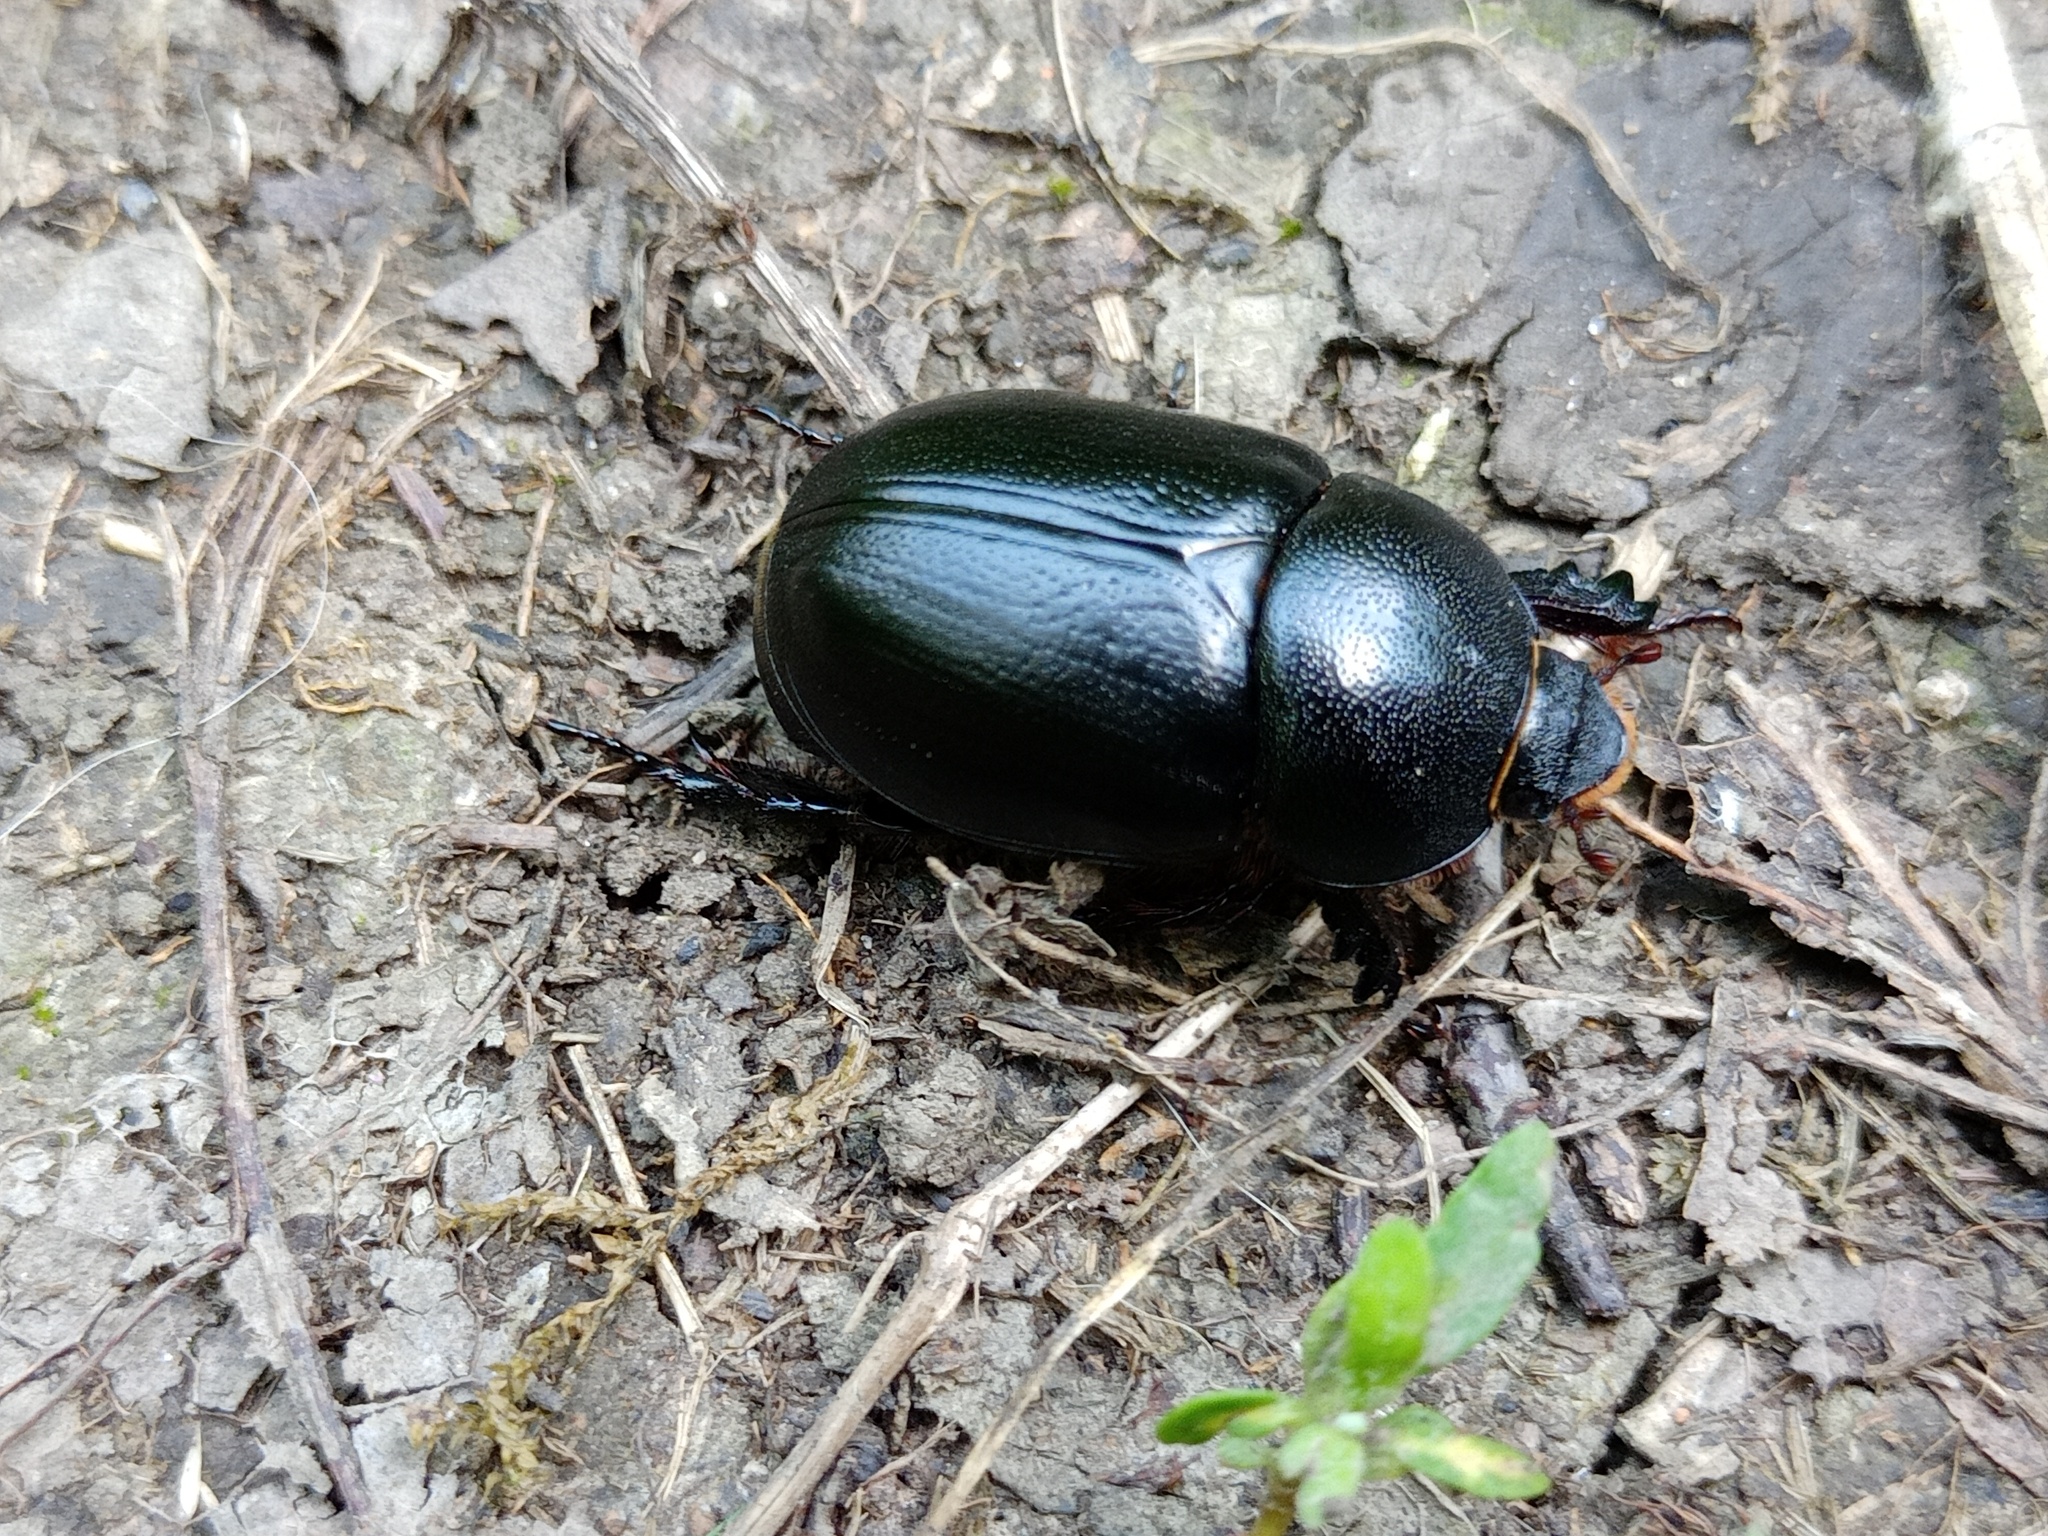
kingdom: Animalia
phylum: Arthropoda
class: Insecta
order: Coleoptera
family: Scarabaeidae
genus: Pentodon
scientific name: Pentodon idiota
